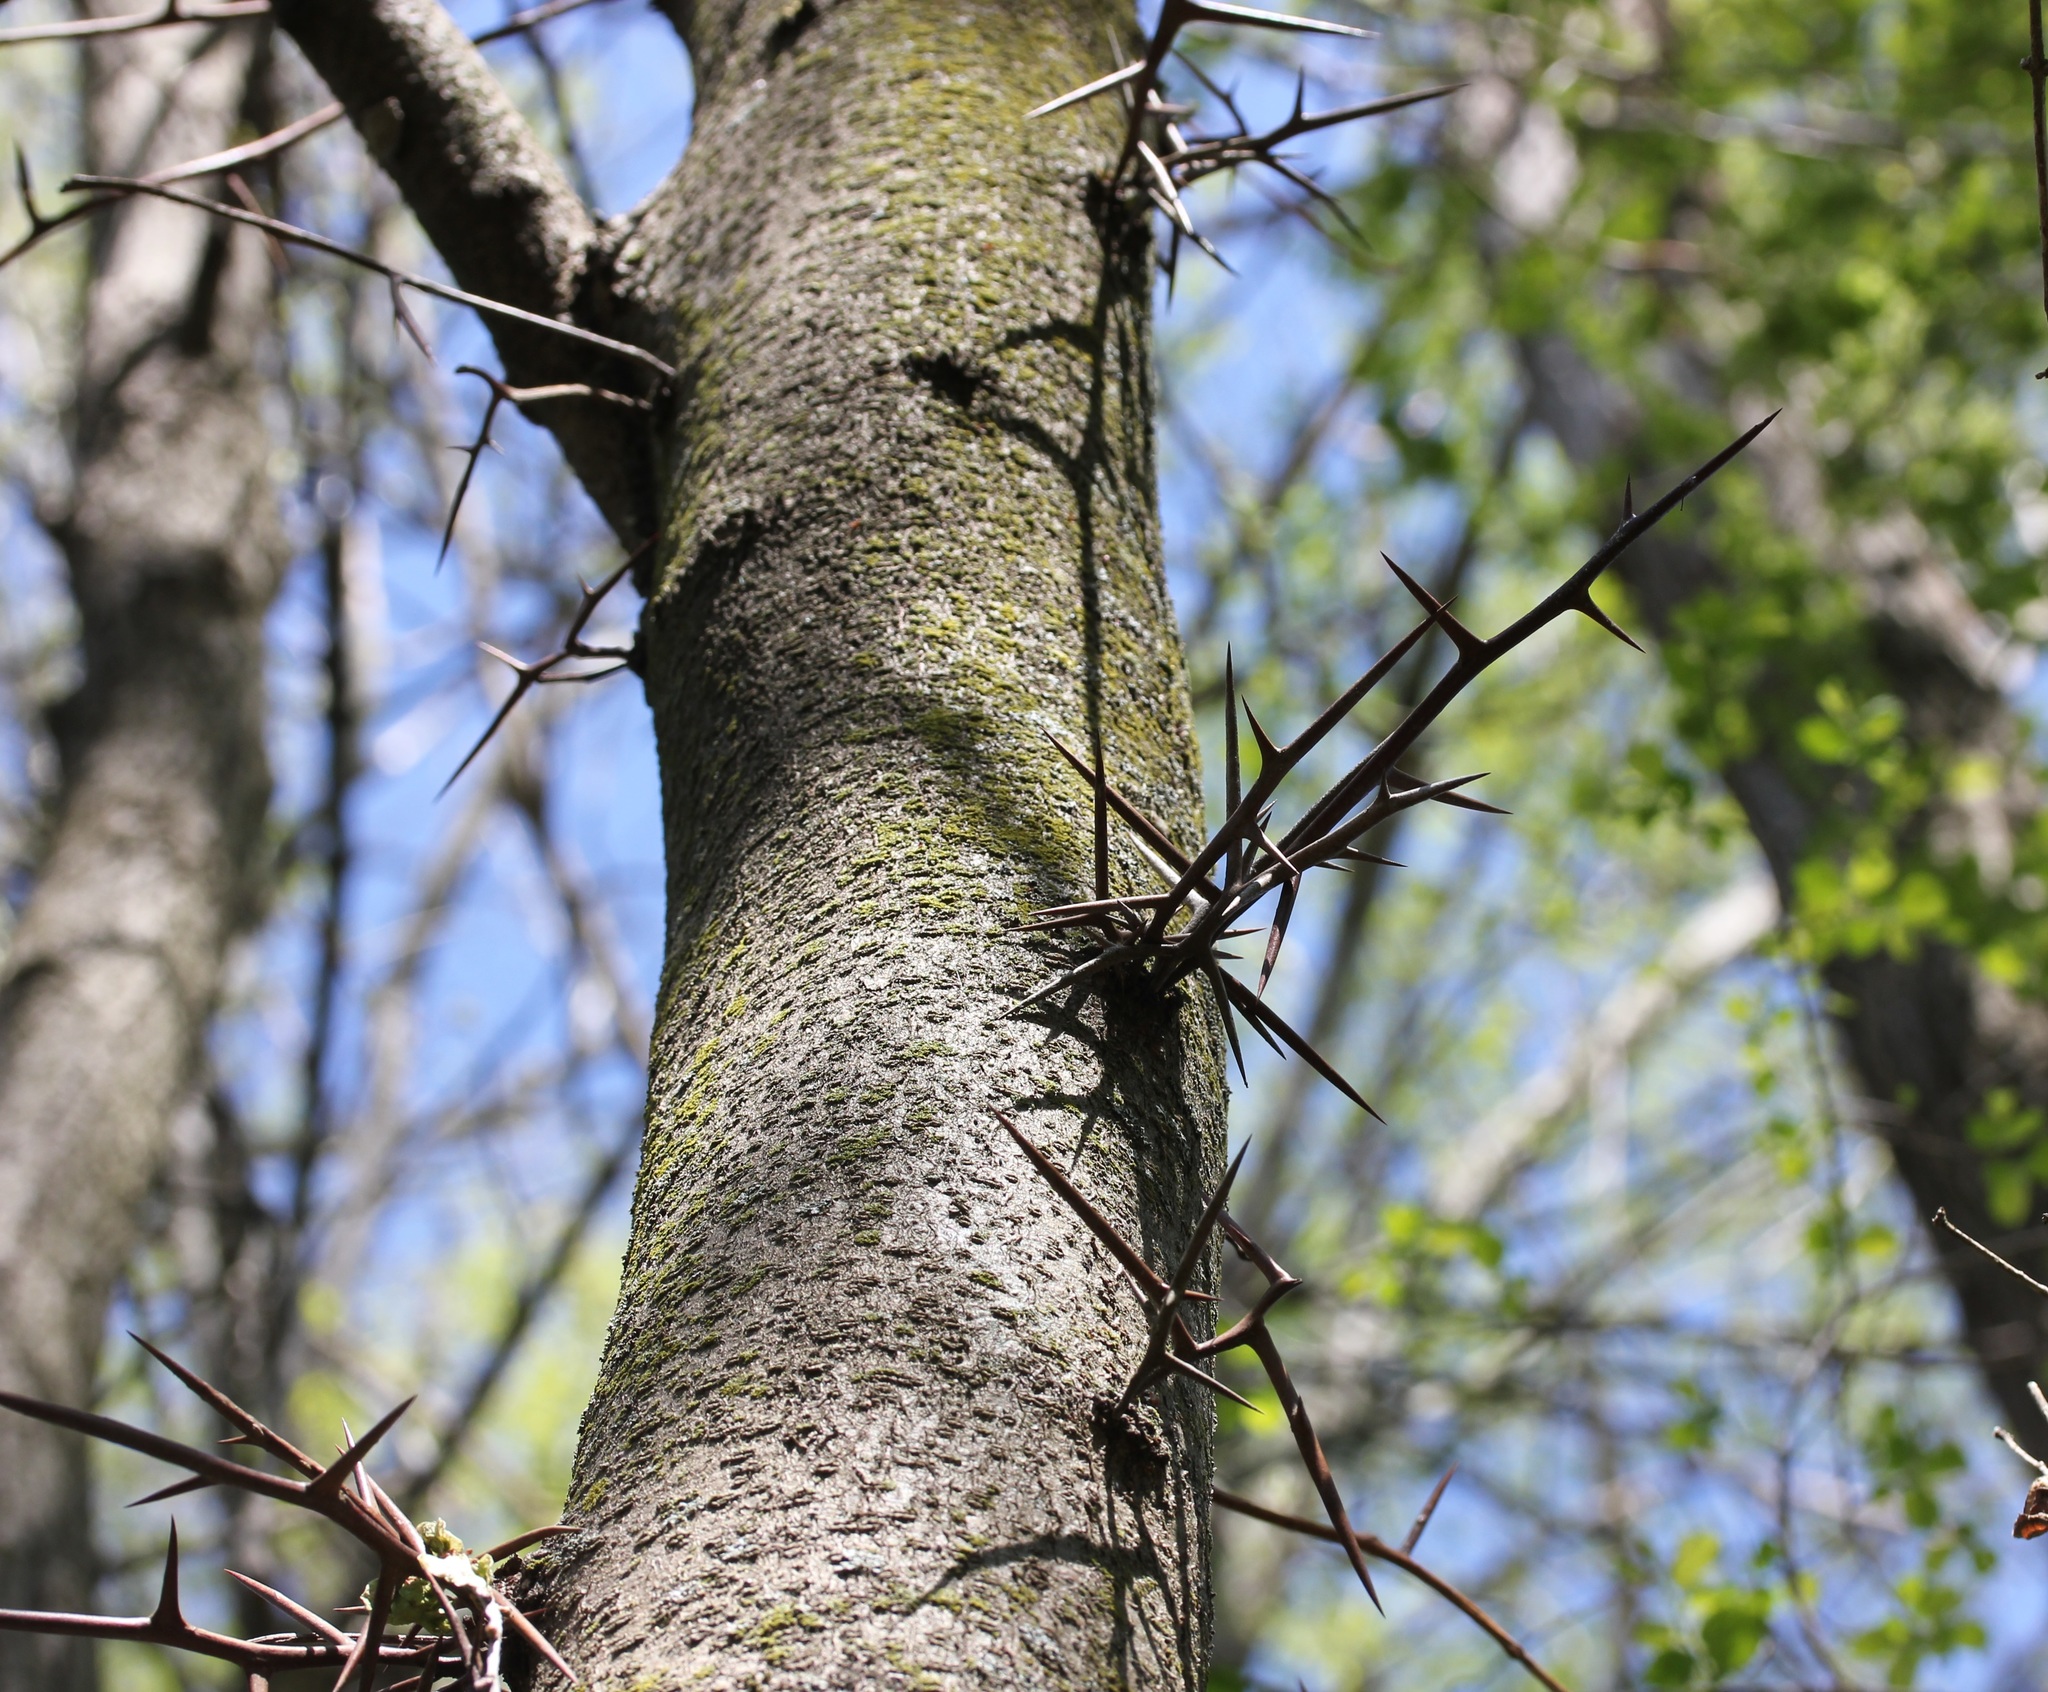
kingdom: Plantae
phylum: Tracheophyta
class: Magnoliopsida
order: Fabales
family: Fabaceae
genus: Gleditsia
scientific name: Gleditsia triacanthos
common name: Common honeylocust
